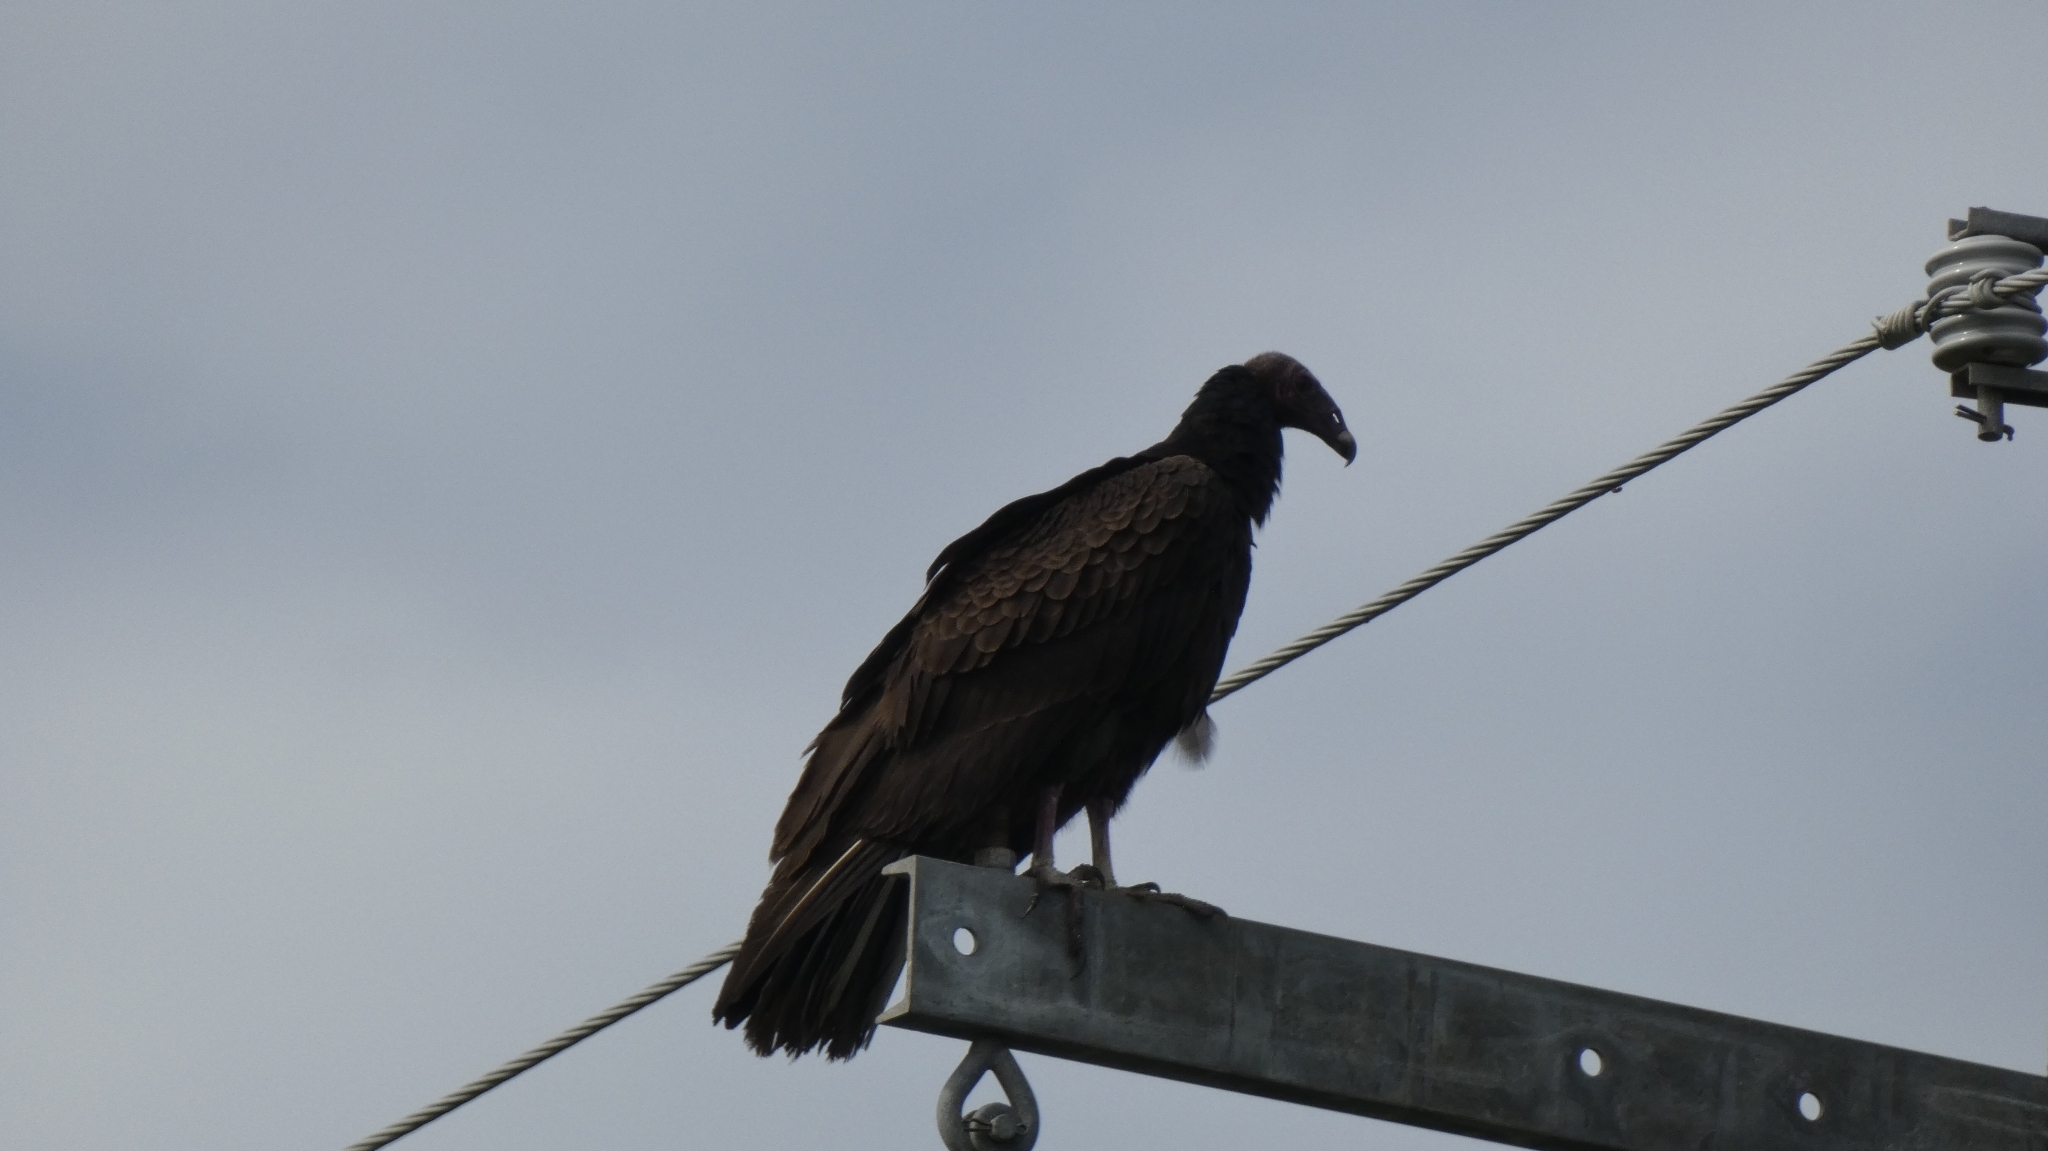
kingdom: Animalia
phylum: Chordata
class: Aves
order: Accipitriformes
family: Cathartidae
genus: Cathartes
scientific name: Cathartes aura
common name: Turkey vulture
